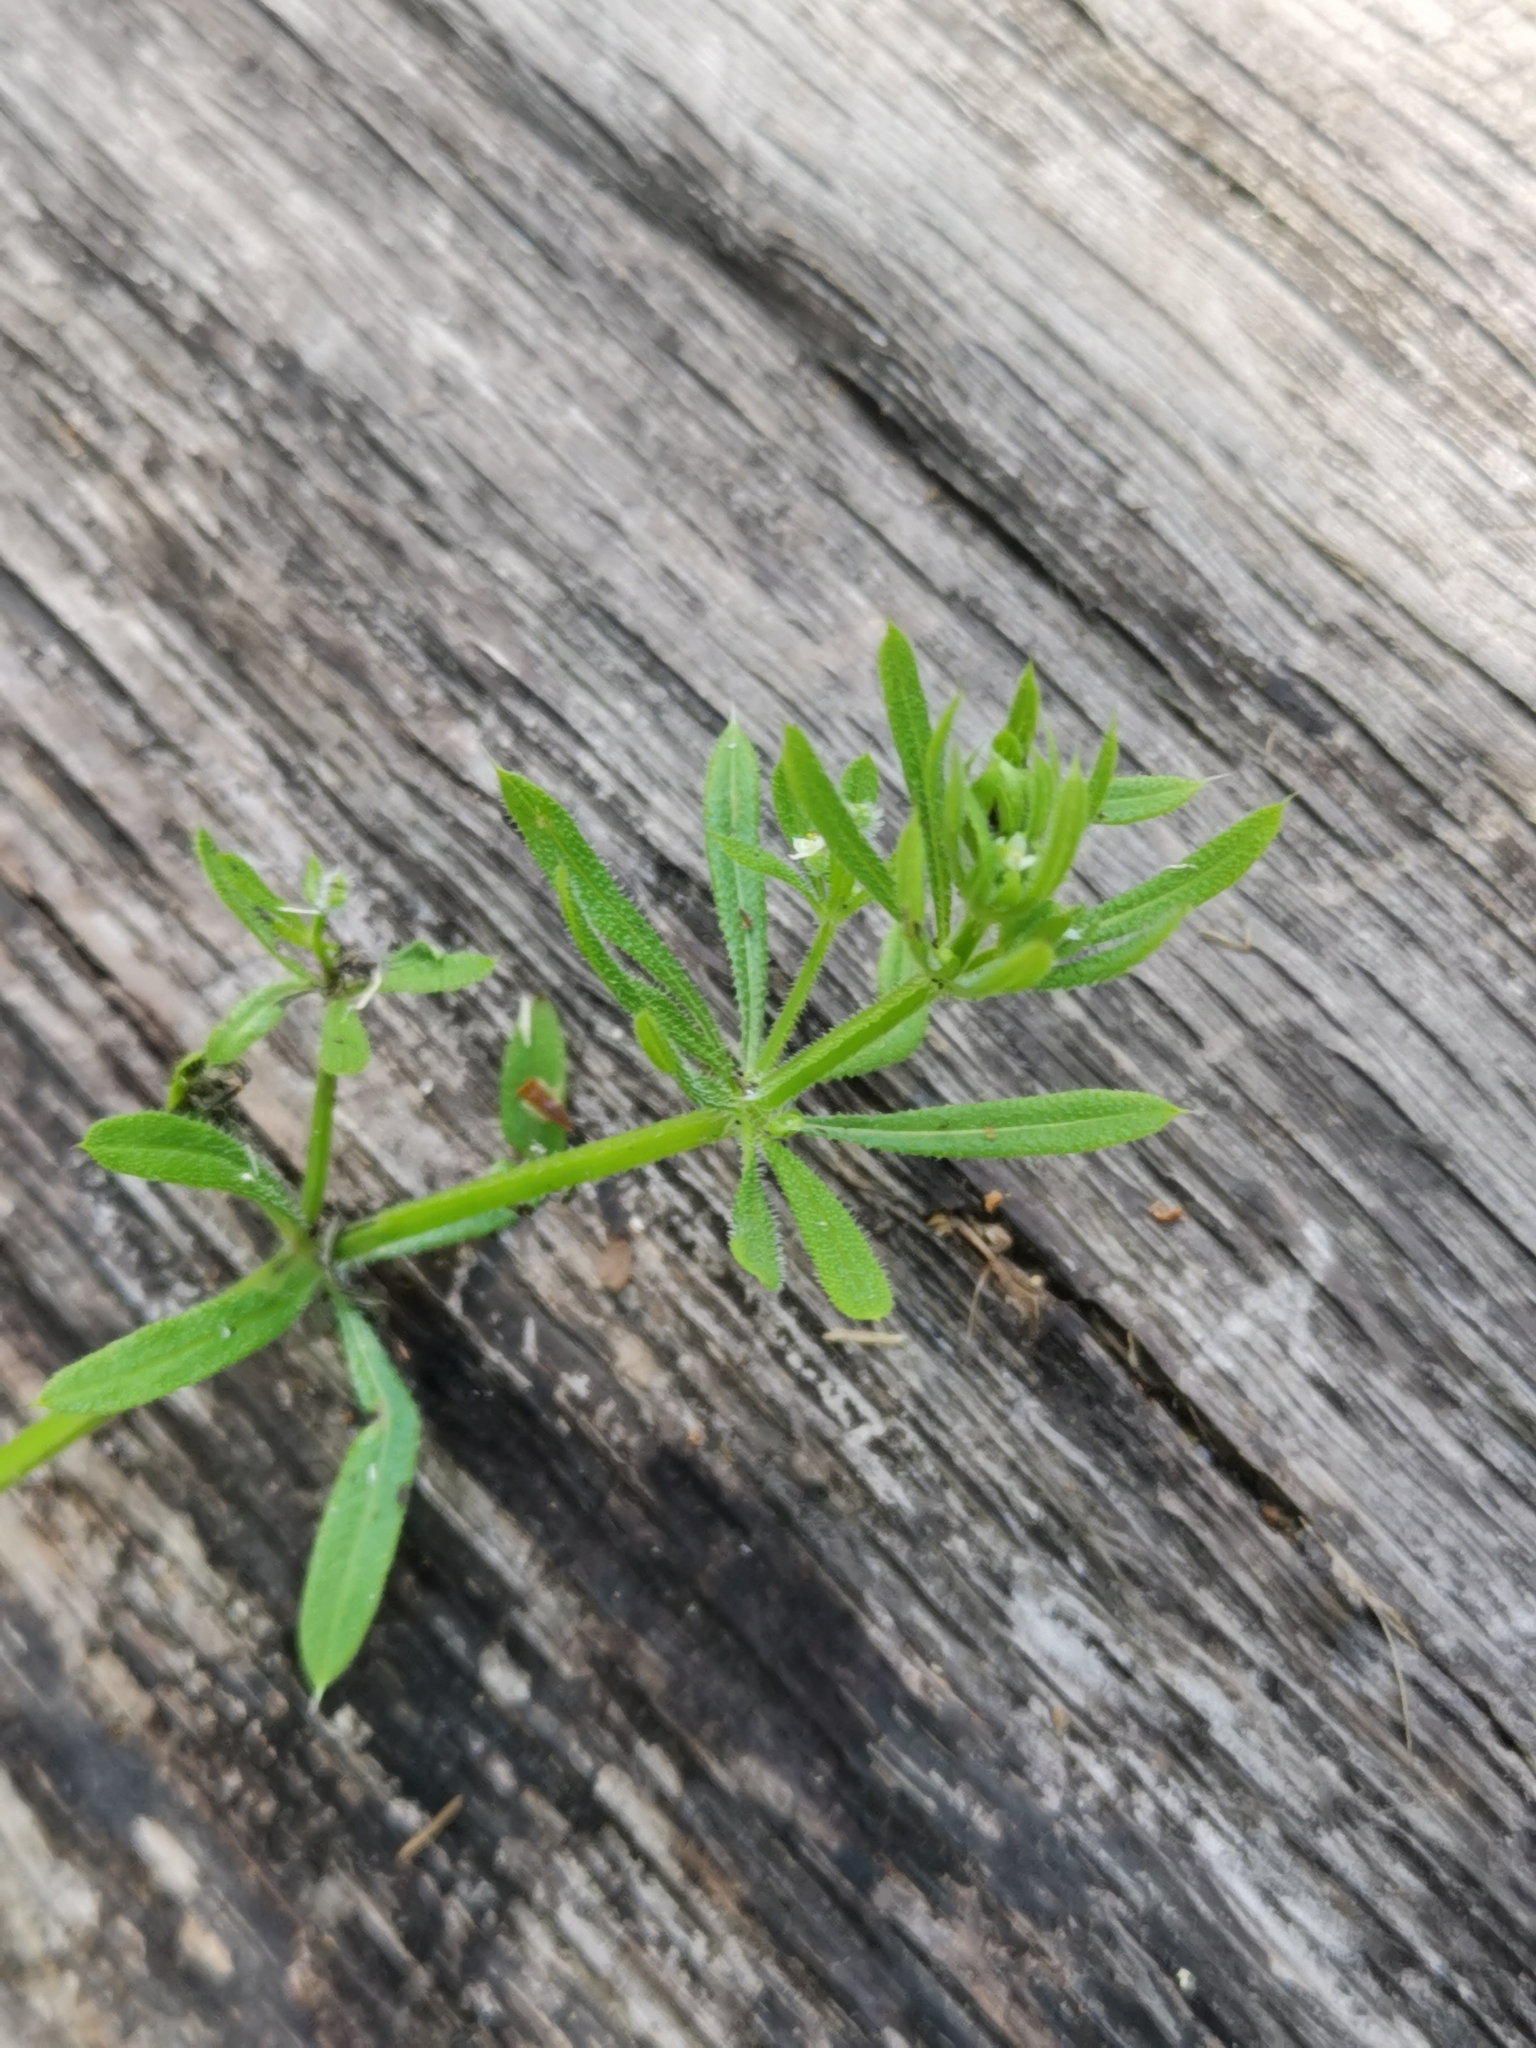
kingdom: Plantae
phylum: Tracheophyta
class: Magnoliopsida
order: Gentianales
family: Rubiaceae
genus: Galium
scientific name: Galium aparine
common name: Cleavers
